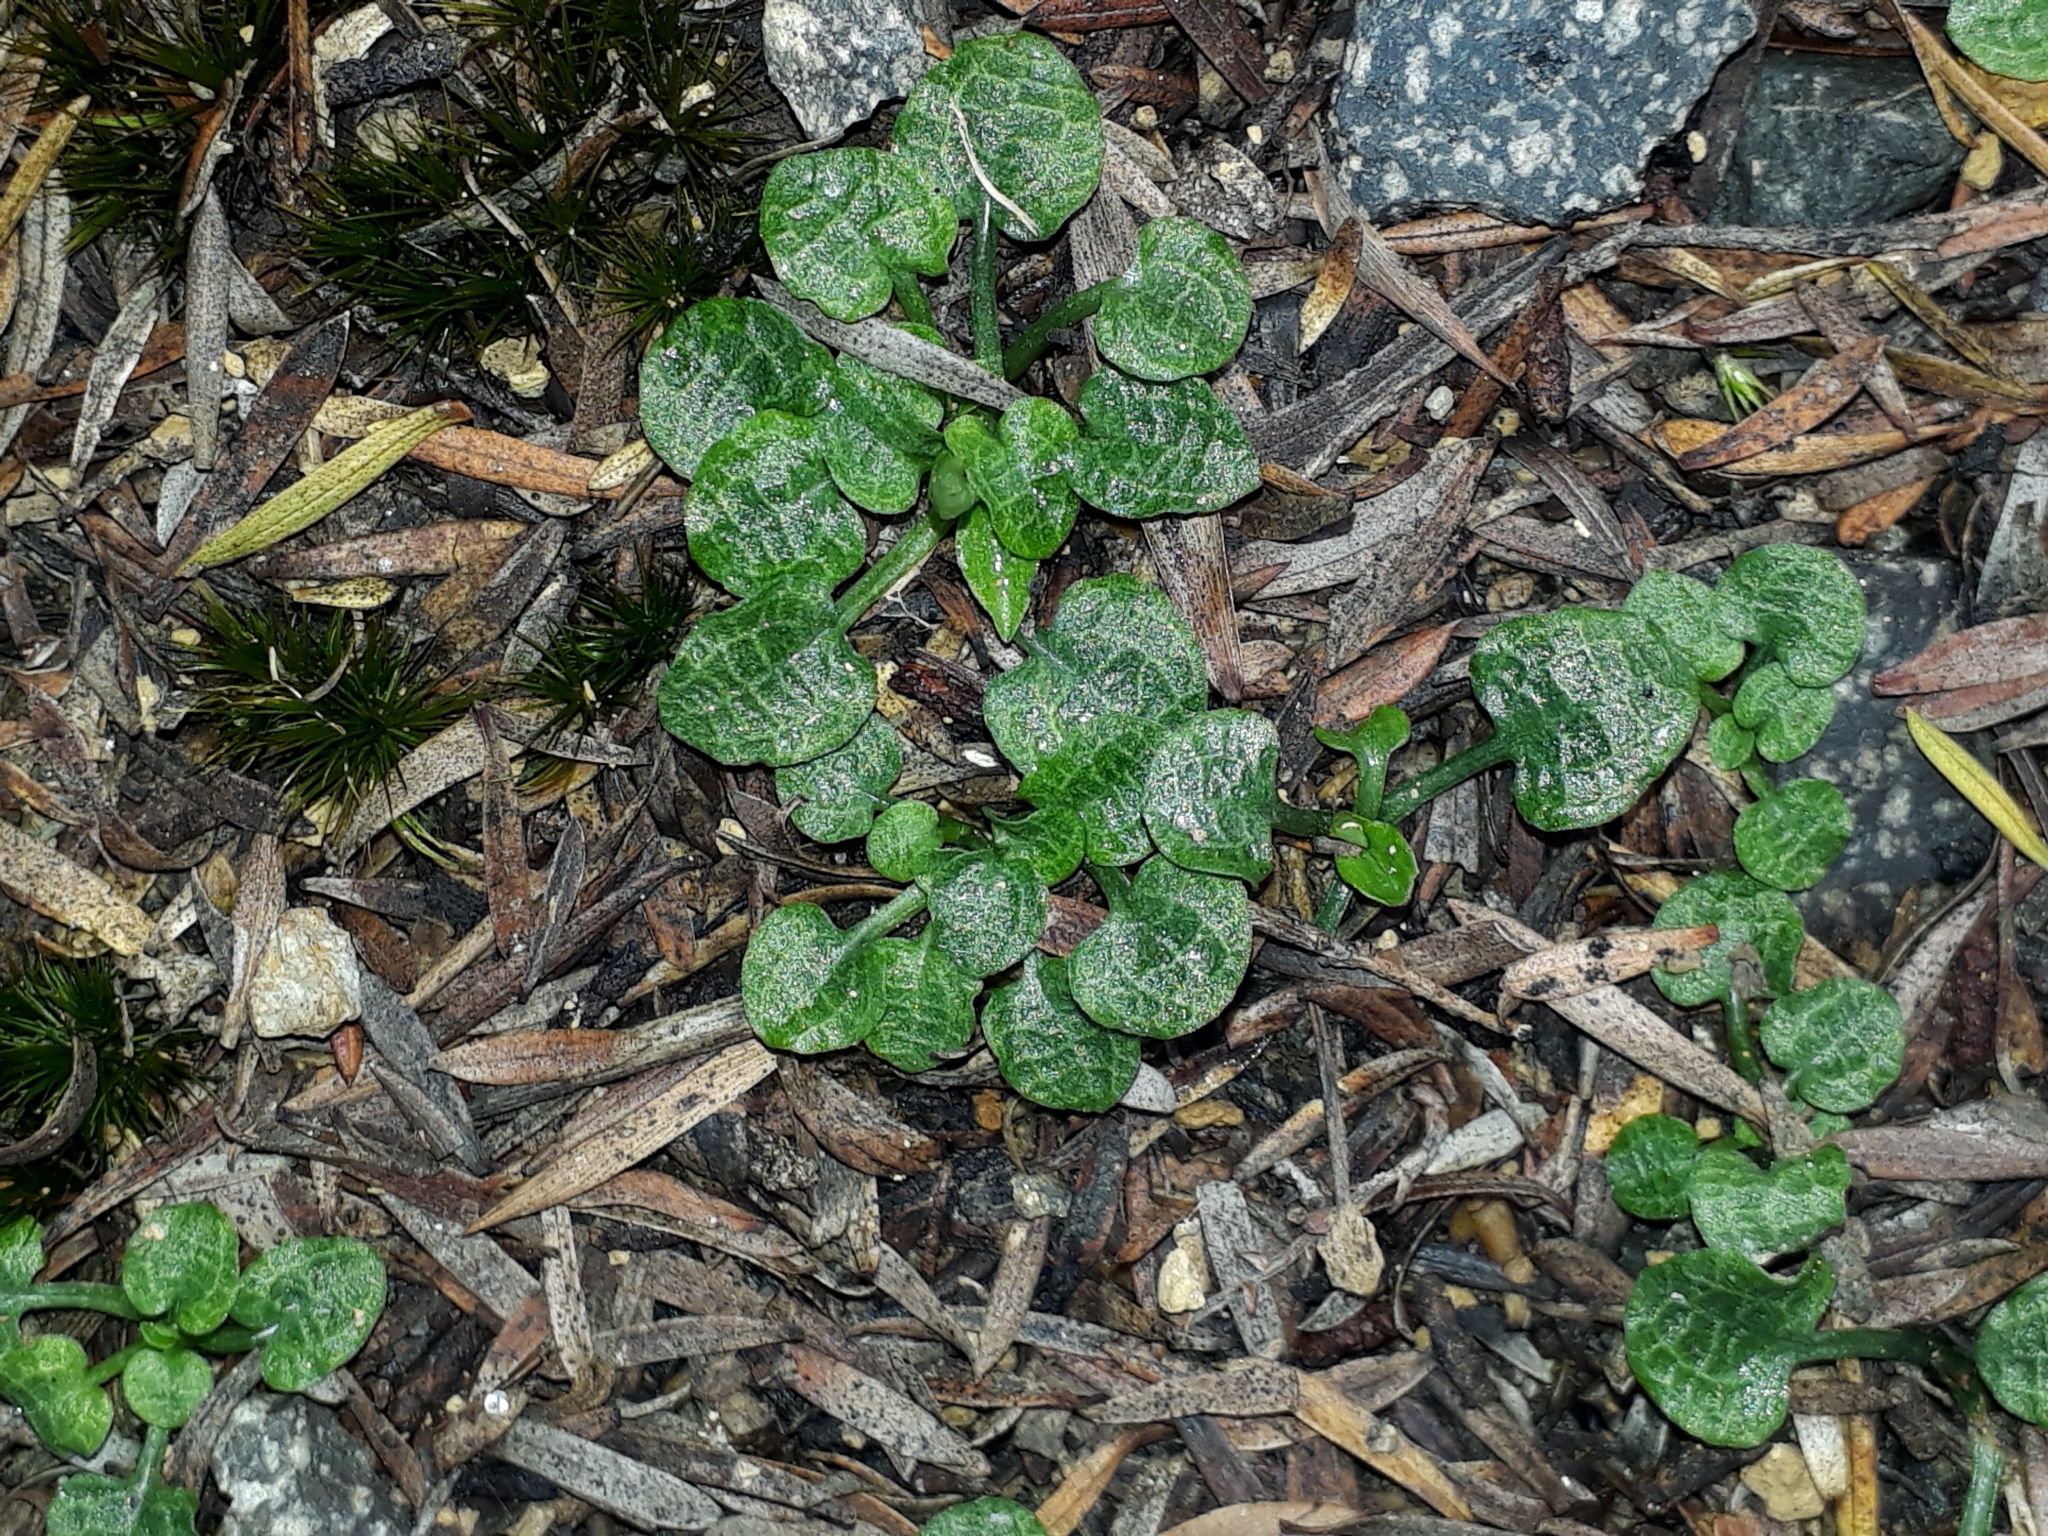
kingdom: Plantae
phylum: Tracheophyta
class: Liliopsida
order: Asparagales
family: Orchidaceae
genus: Pterostylis
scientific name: Pterostylis trullifolia
